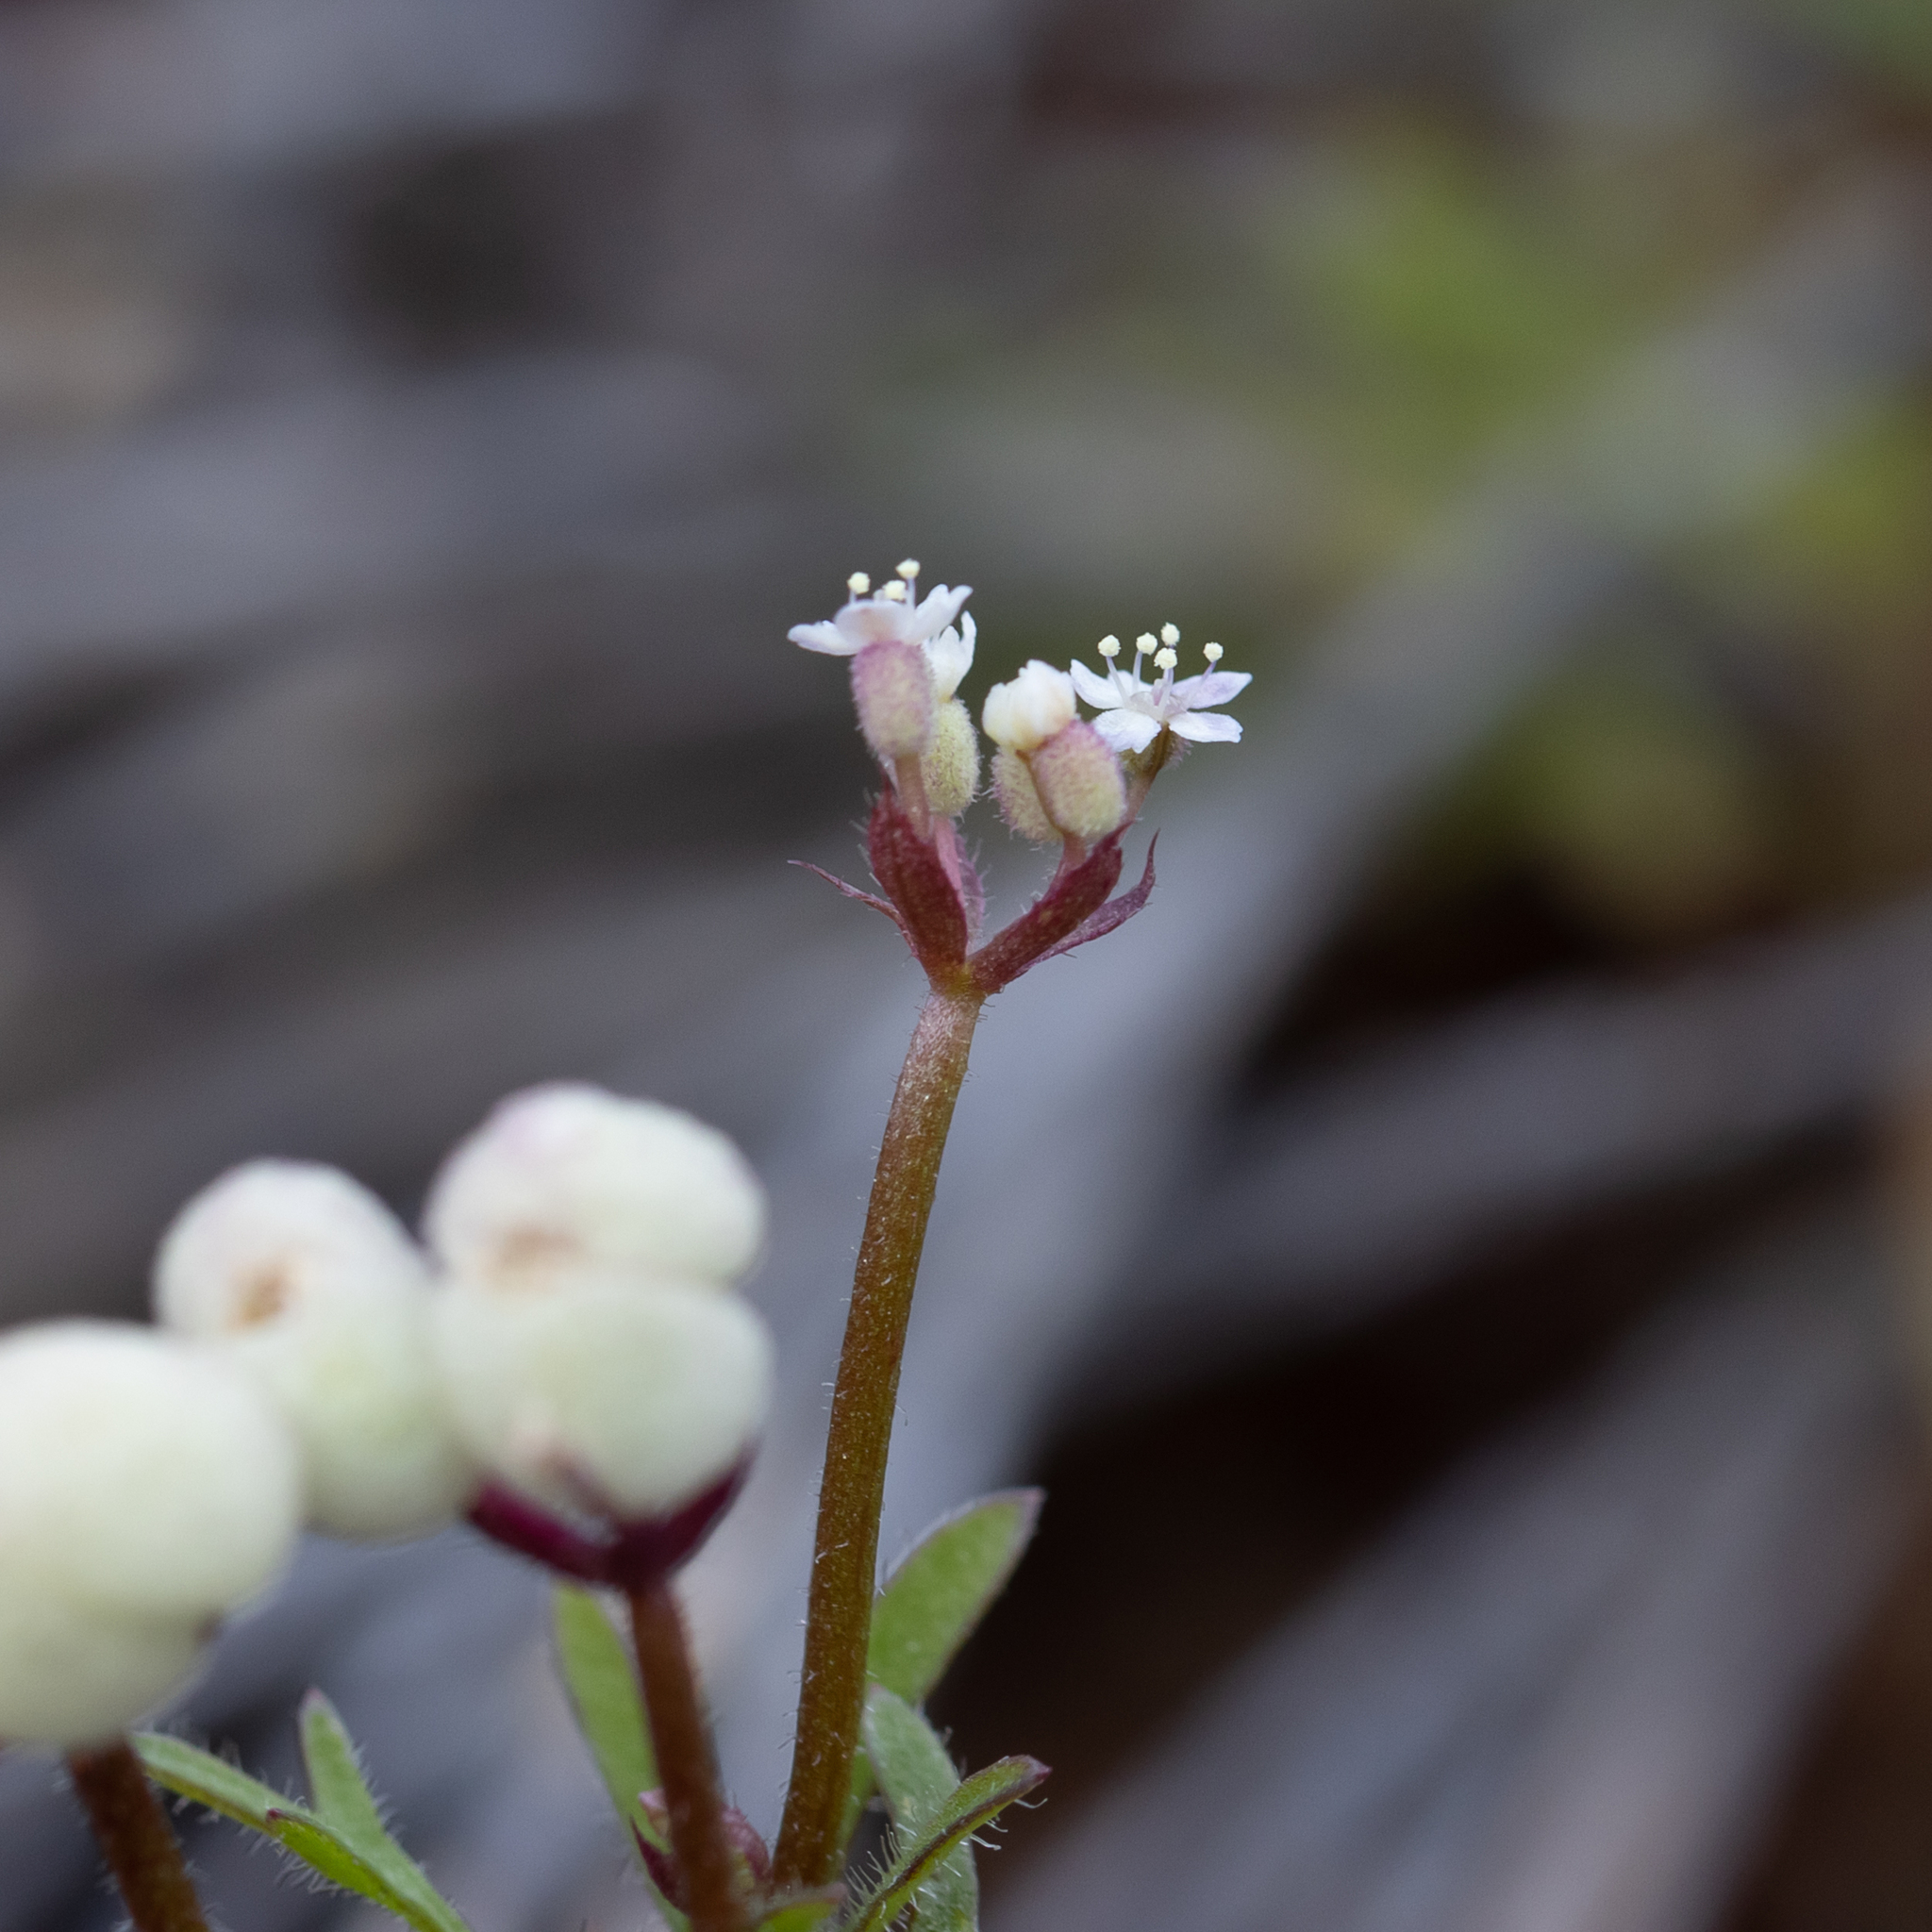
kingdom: Plantae
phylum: Tracheophyta
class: Magnoliopsida
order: Apiales
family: Araliaceae
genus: Trachymene
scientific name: Trachymene ornata
